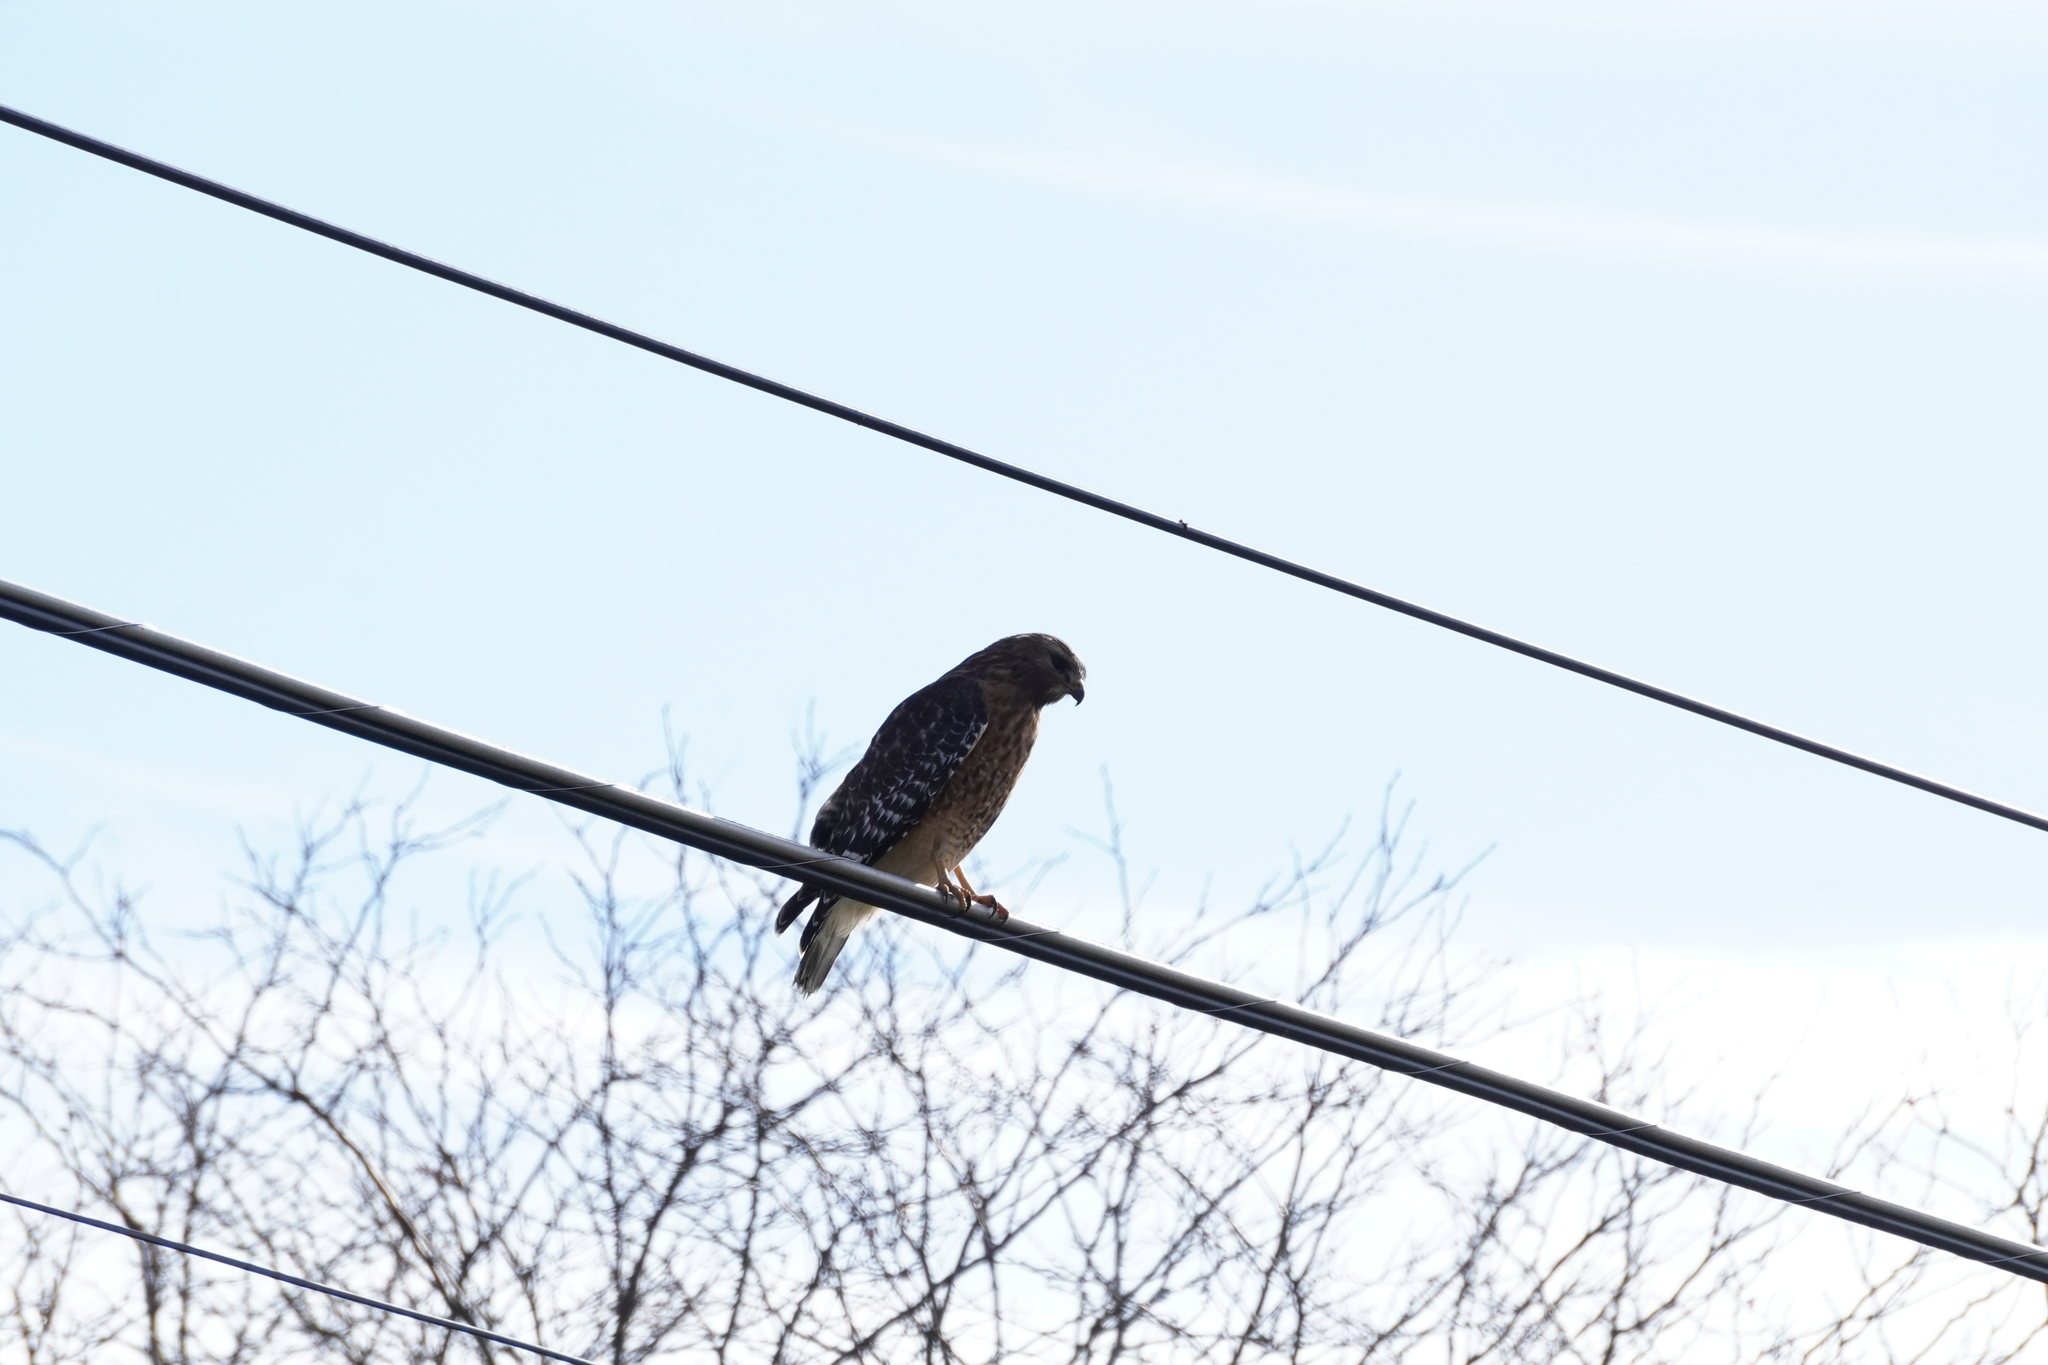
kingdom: Animalia
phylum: Chordata
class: Aves
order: Accipitriformes
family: Accipitridae
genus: Buteo
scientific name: Buteo lineatus
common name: Red-shouldered hawk
